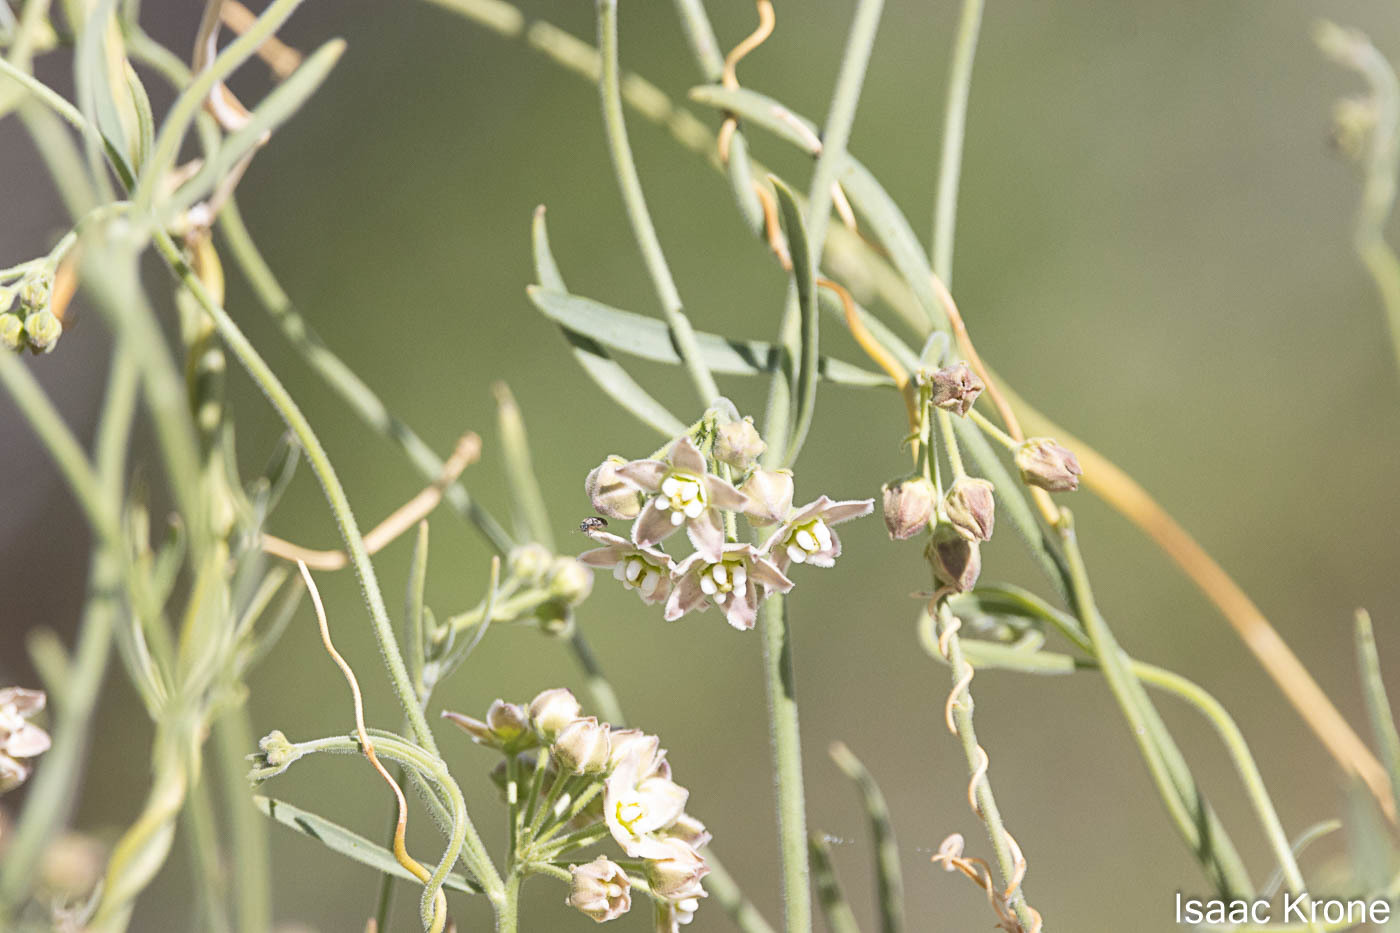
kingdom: Plantae
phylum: Tracheophyta
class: Magnoliopsida
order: Gentianales
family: Apocynaceae
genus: Funastrum
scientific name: Funastrum hirtellum
